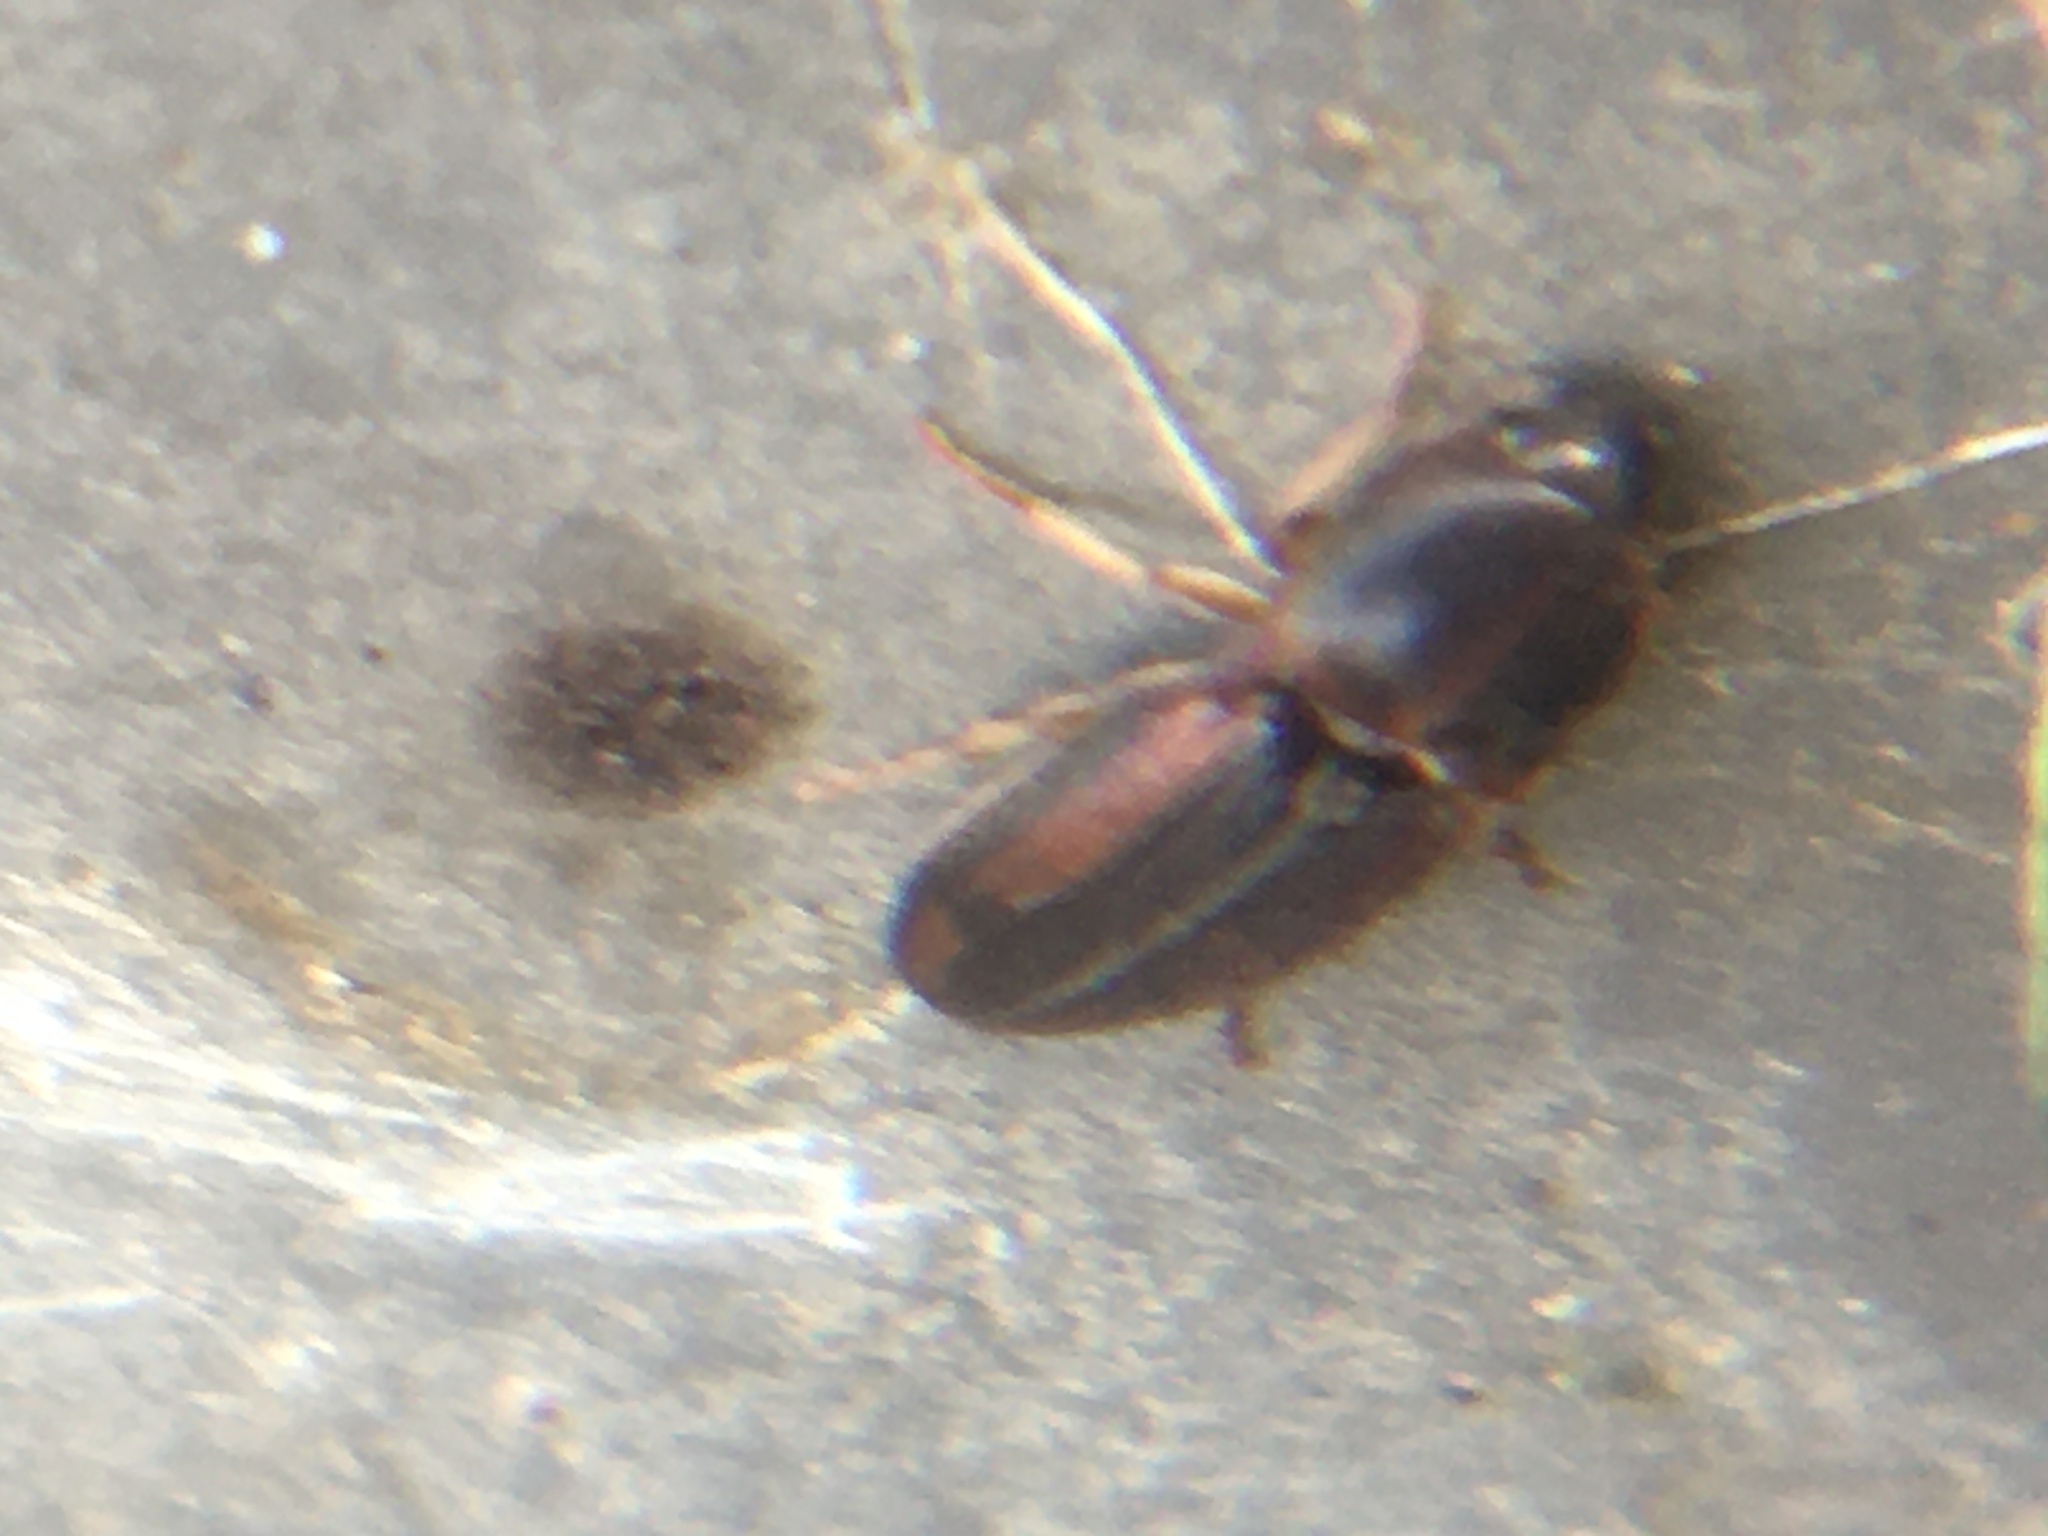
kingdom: Animalia
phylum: Arthropoda
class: Insecta
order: Coleoptera
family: Elateridae
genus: Monocrepidius
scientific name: Monocrepidius
